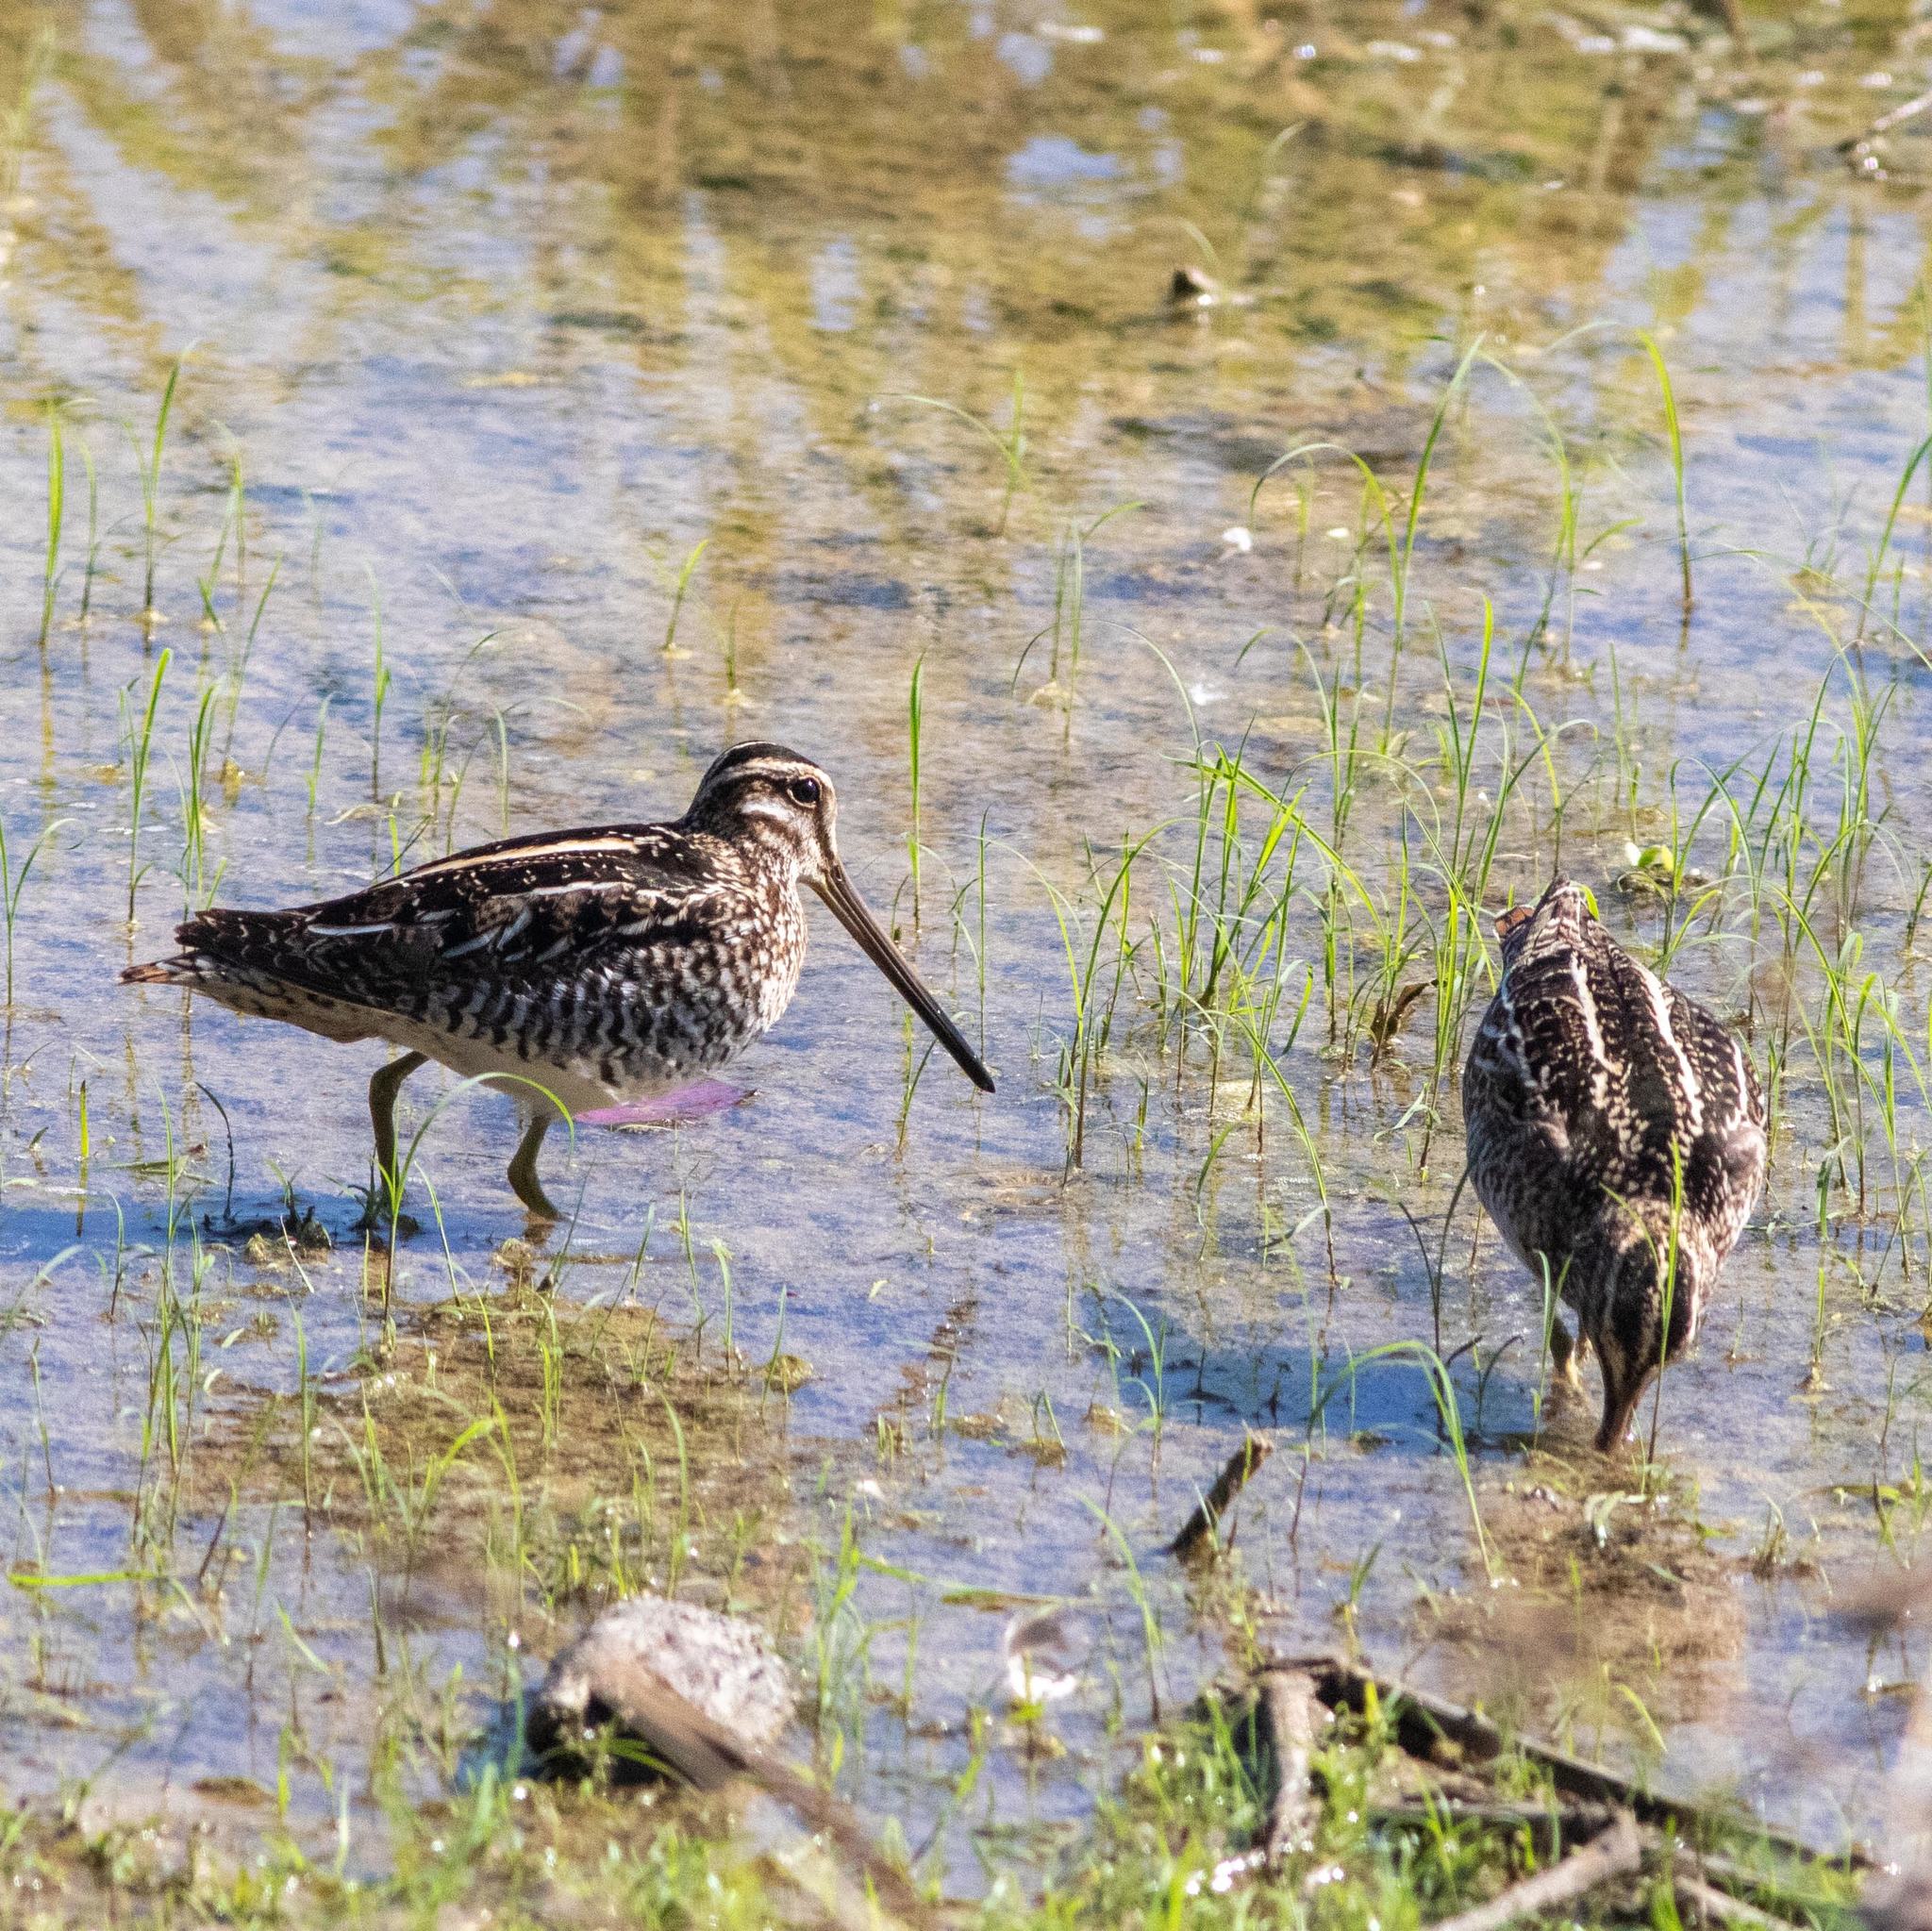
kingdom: Animalia
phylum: Chordata
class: Aves
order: Charadriiformes
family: Scolopacidae
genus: Gallinago
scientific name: Gallinago delicata
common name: Wilson's snipe
